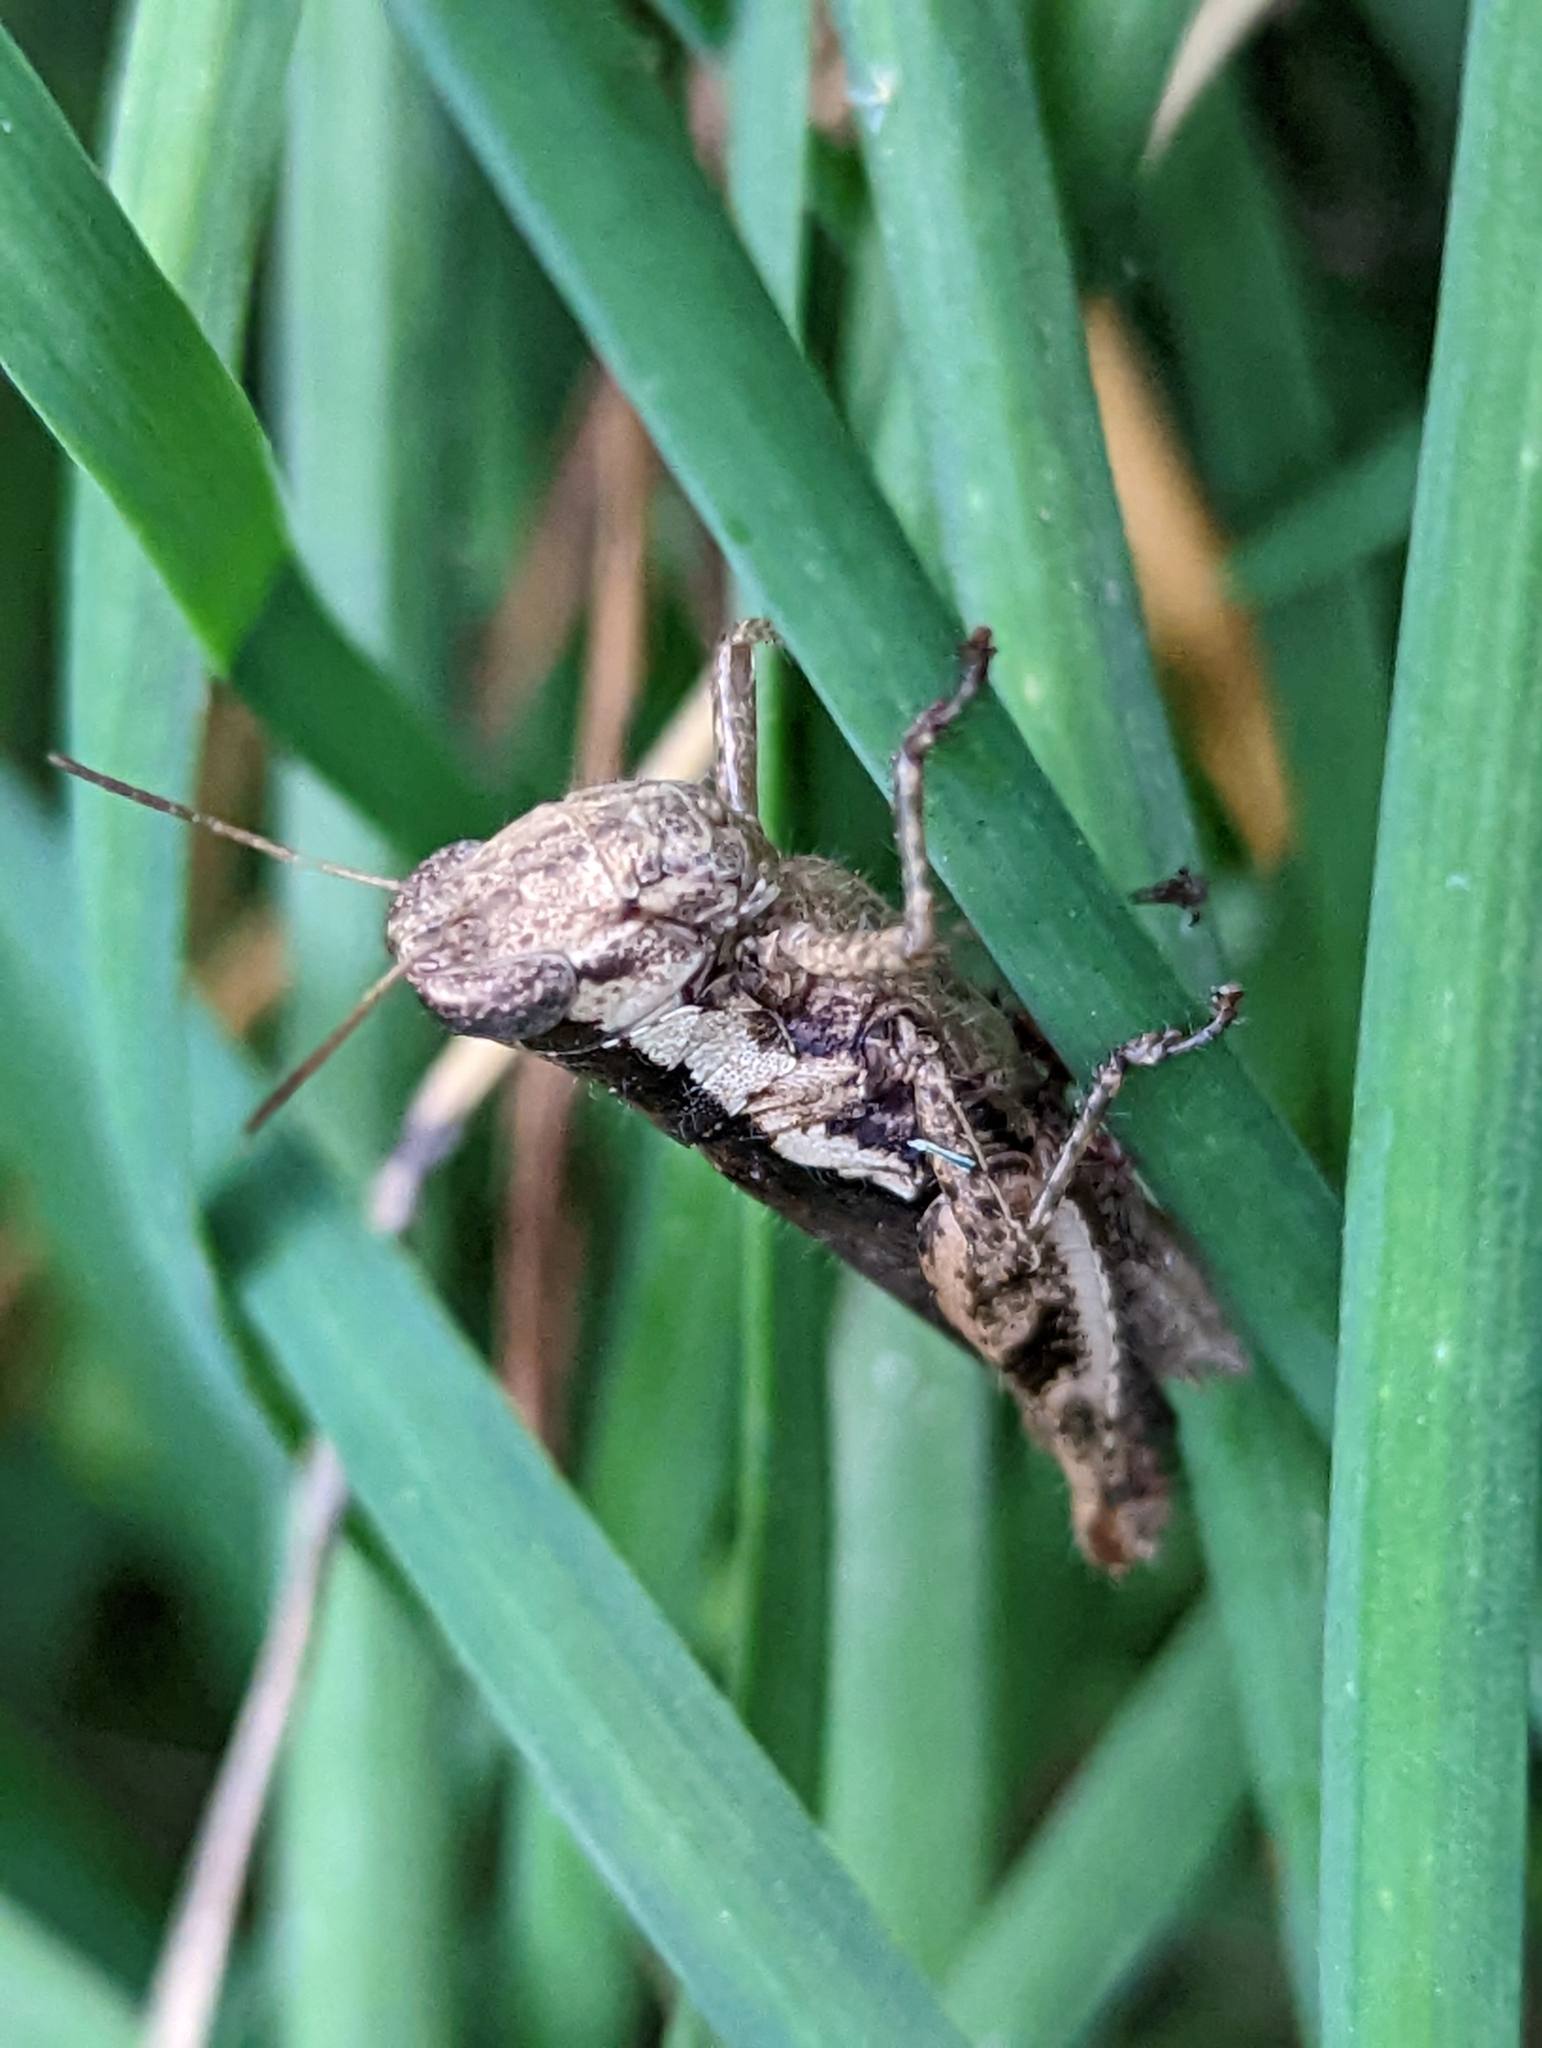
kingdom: Animalia
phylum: Arthropoda
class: Insecta
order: Orthoptera
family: Acrididae
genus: Pseudoxya
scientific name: Pseudoxya diminuta
